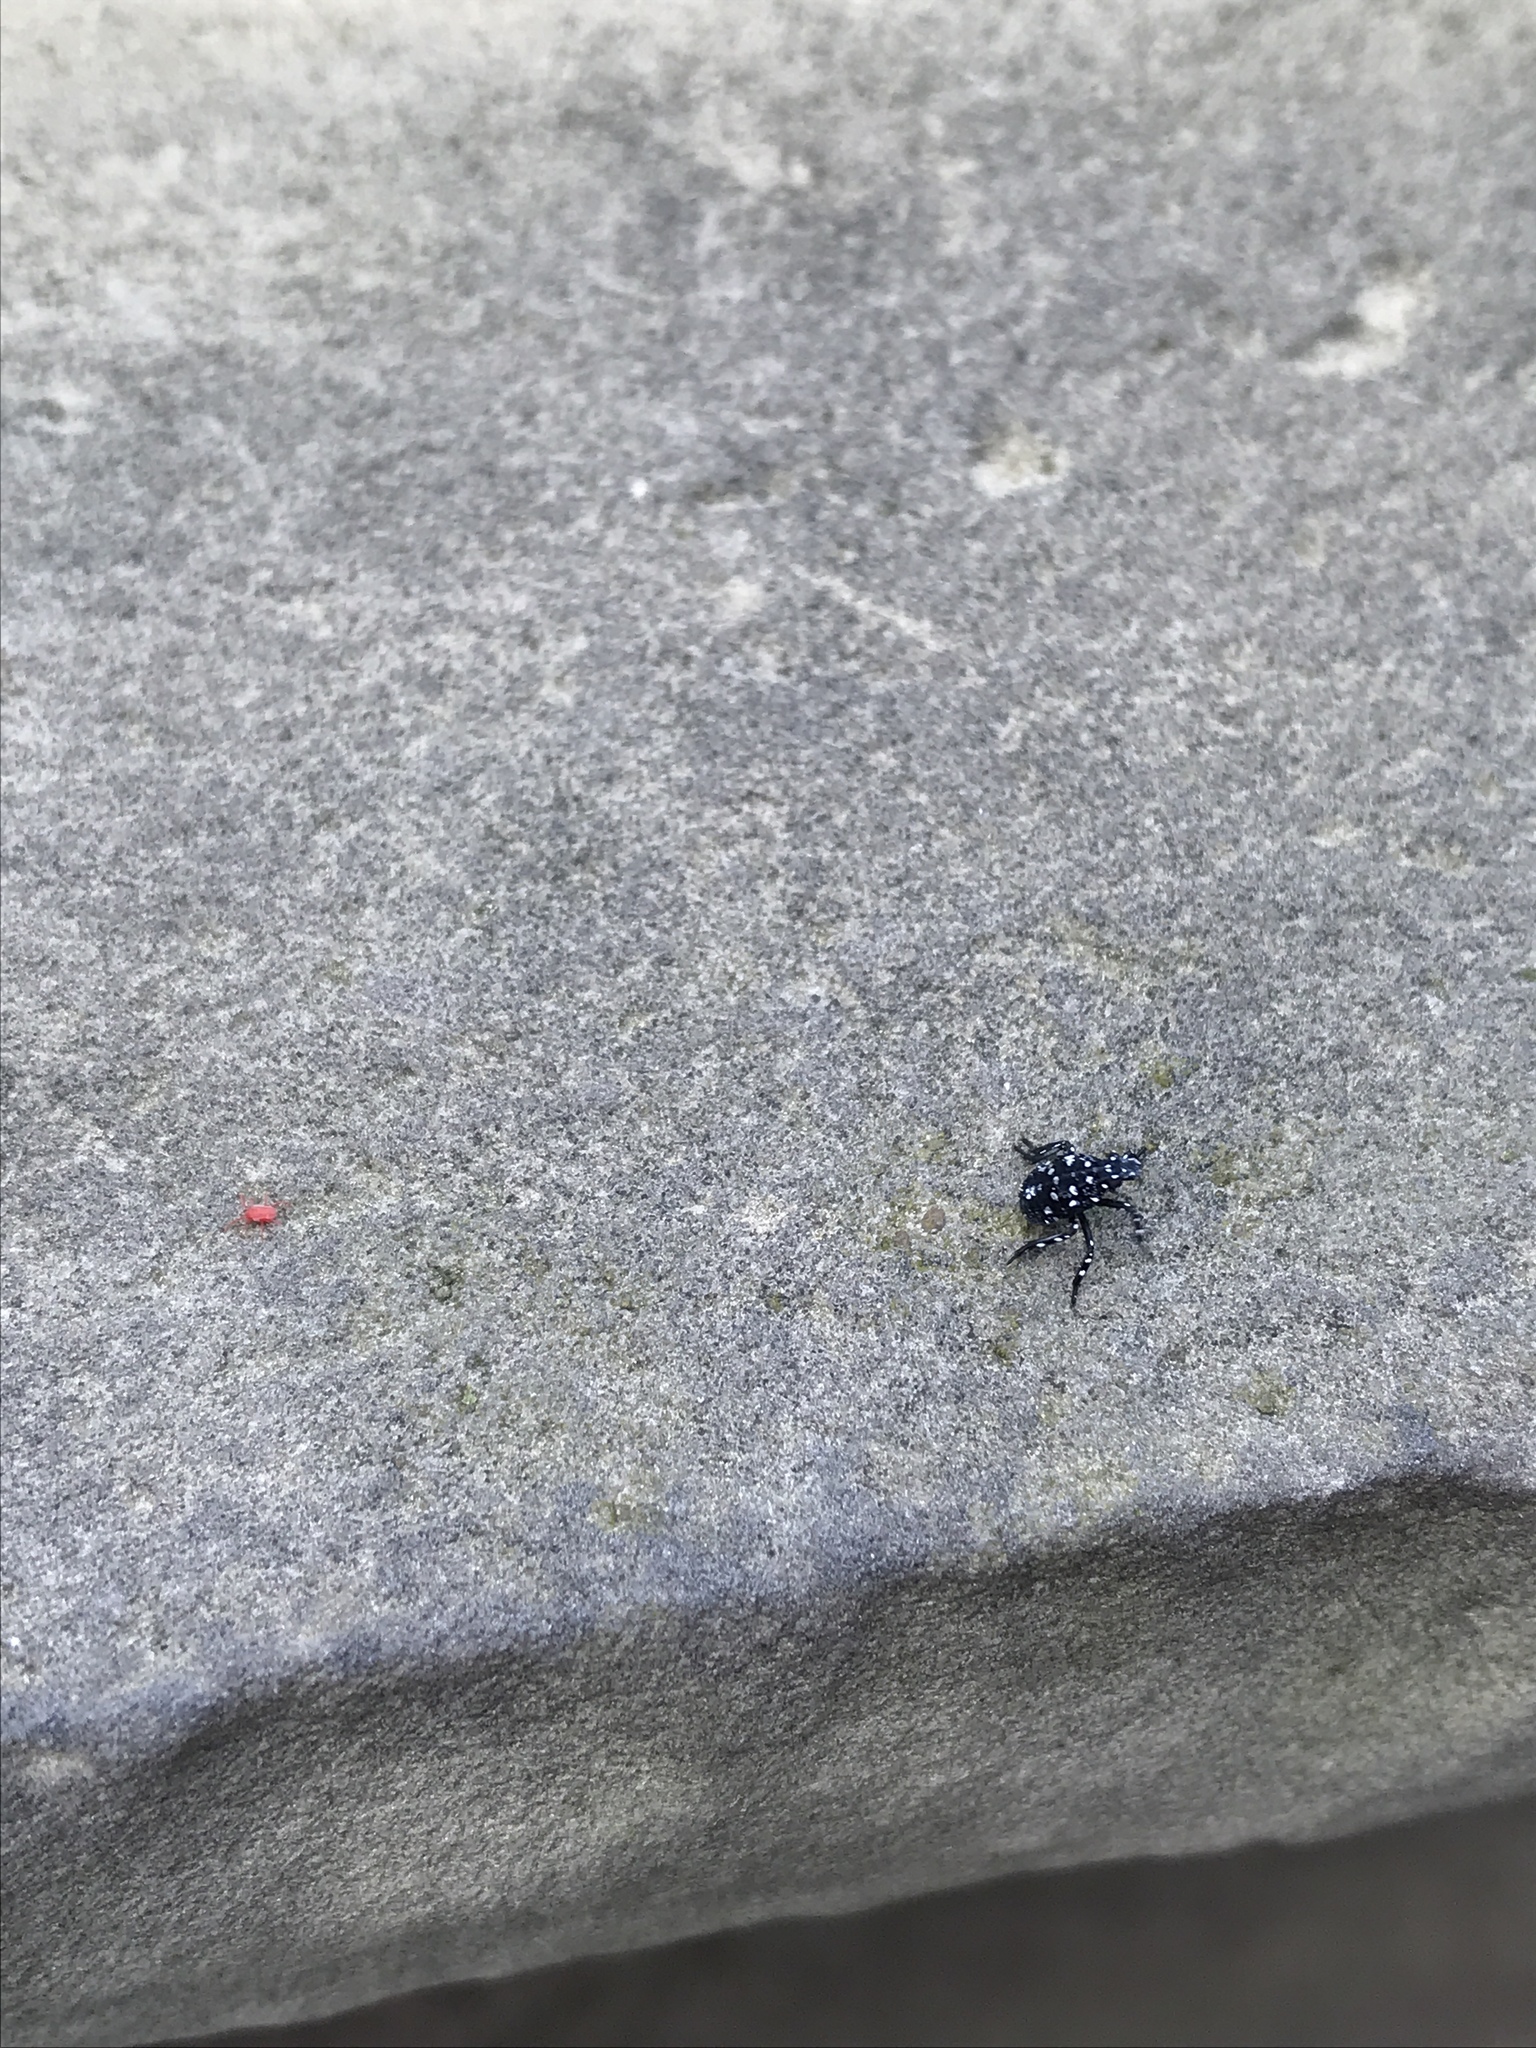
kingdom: Animalia
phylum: Arthropoda
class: Insecta
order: Hemiptera
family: Fulgoridae
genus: Lycorma
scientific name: Lycorma delicatula
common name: Spotted lanternfly
